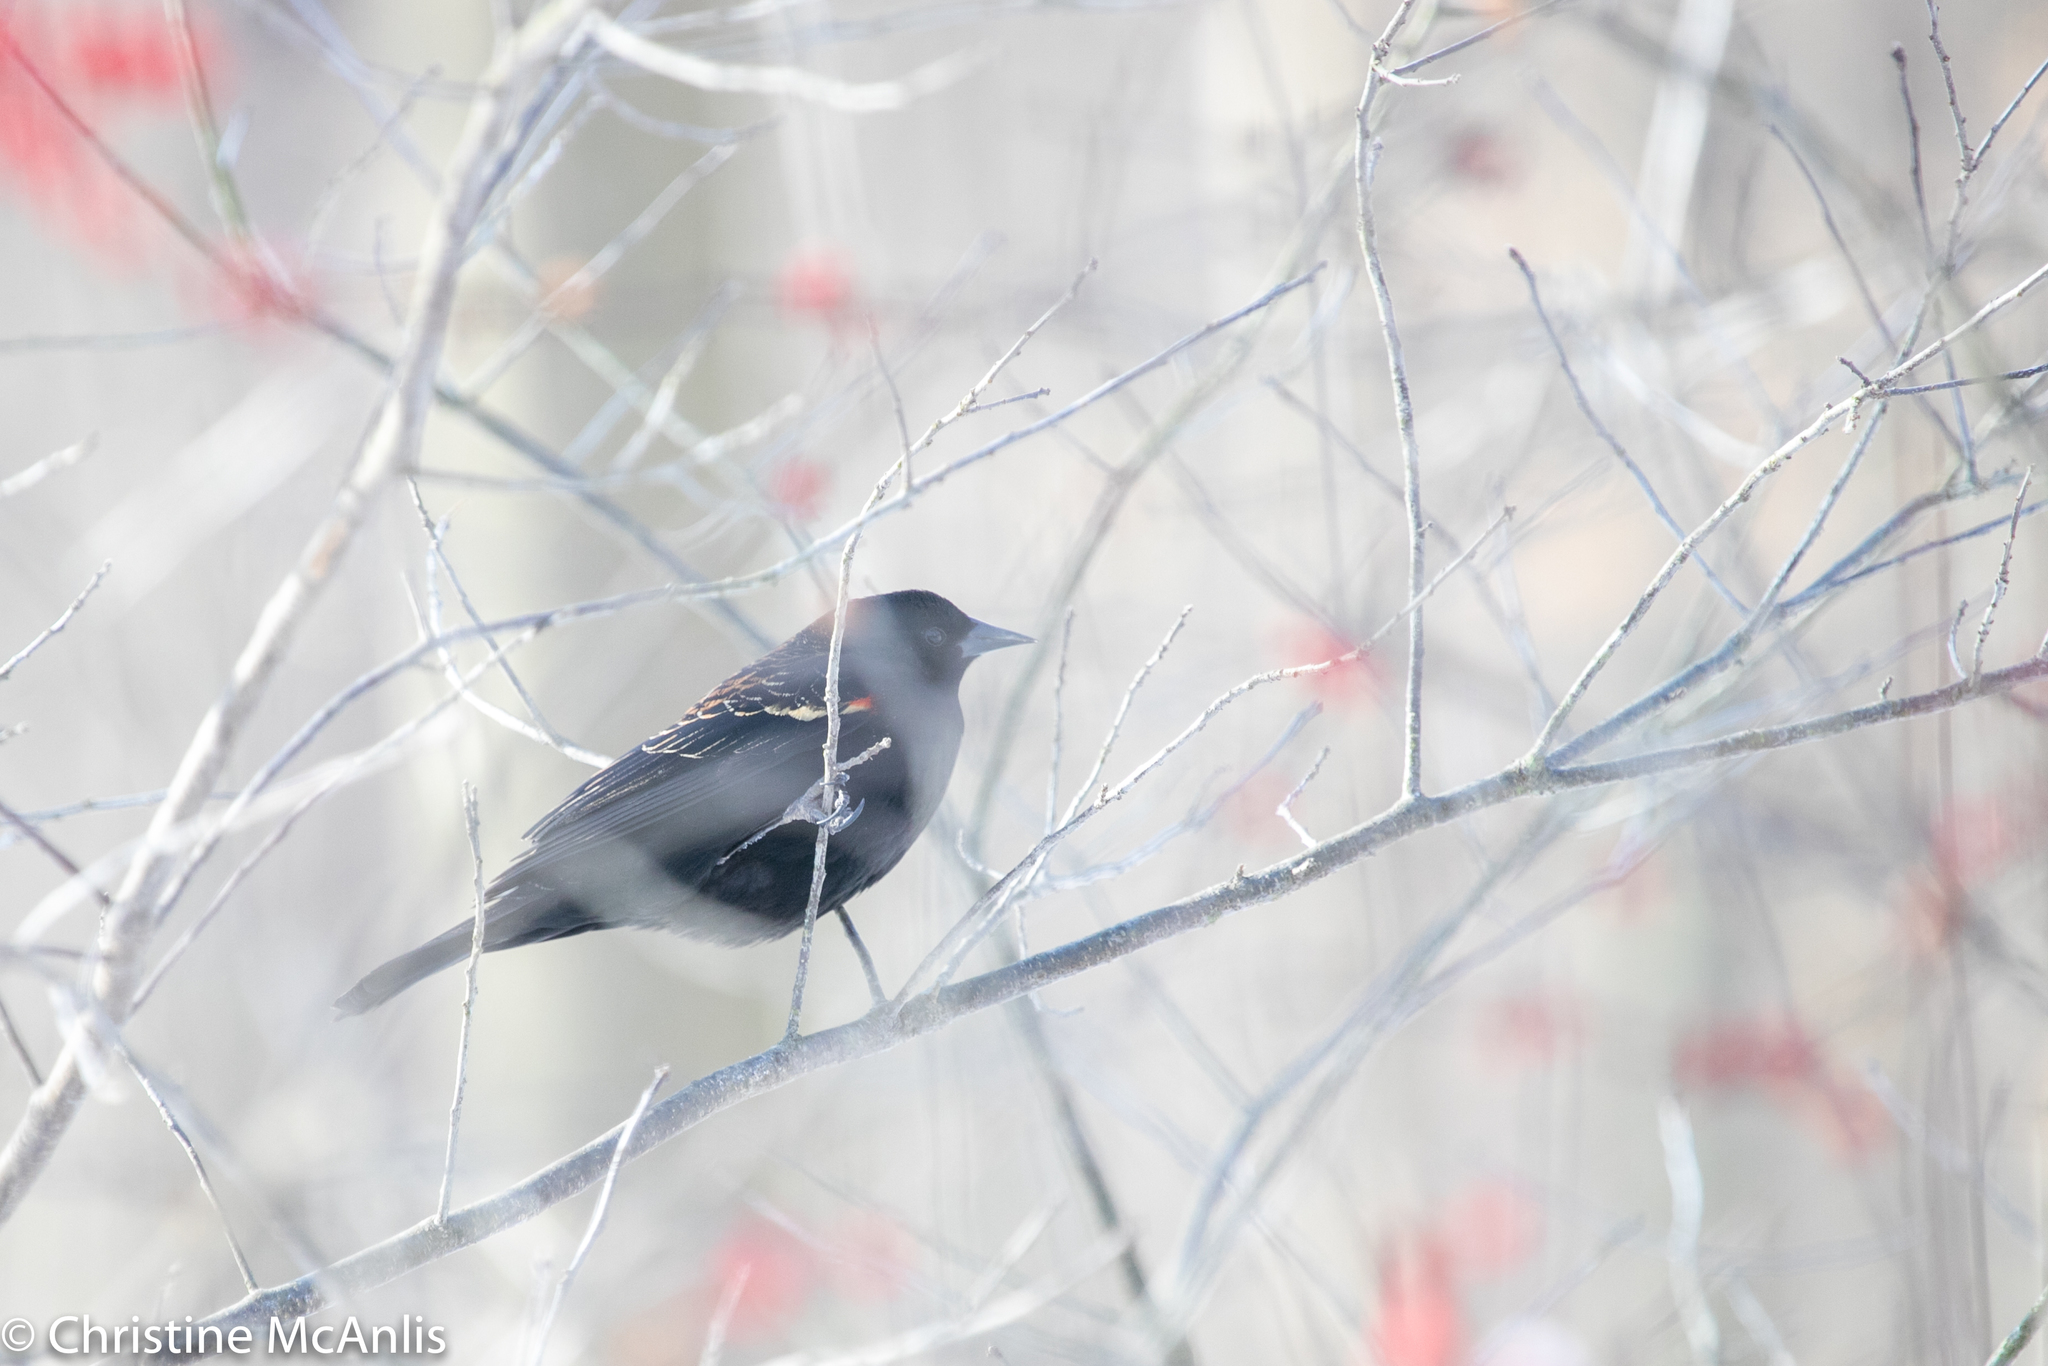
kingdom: Animalia
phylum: Chordata
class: Aves
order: Passeriformes
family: Icteridae
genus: Agelaius
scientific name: Agelaius phoeniceus
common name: Red-winged blackbird
